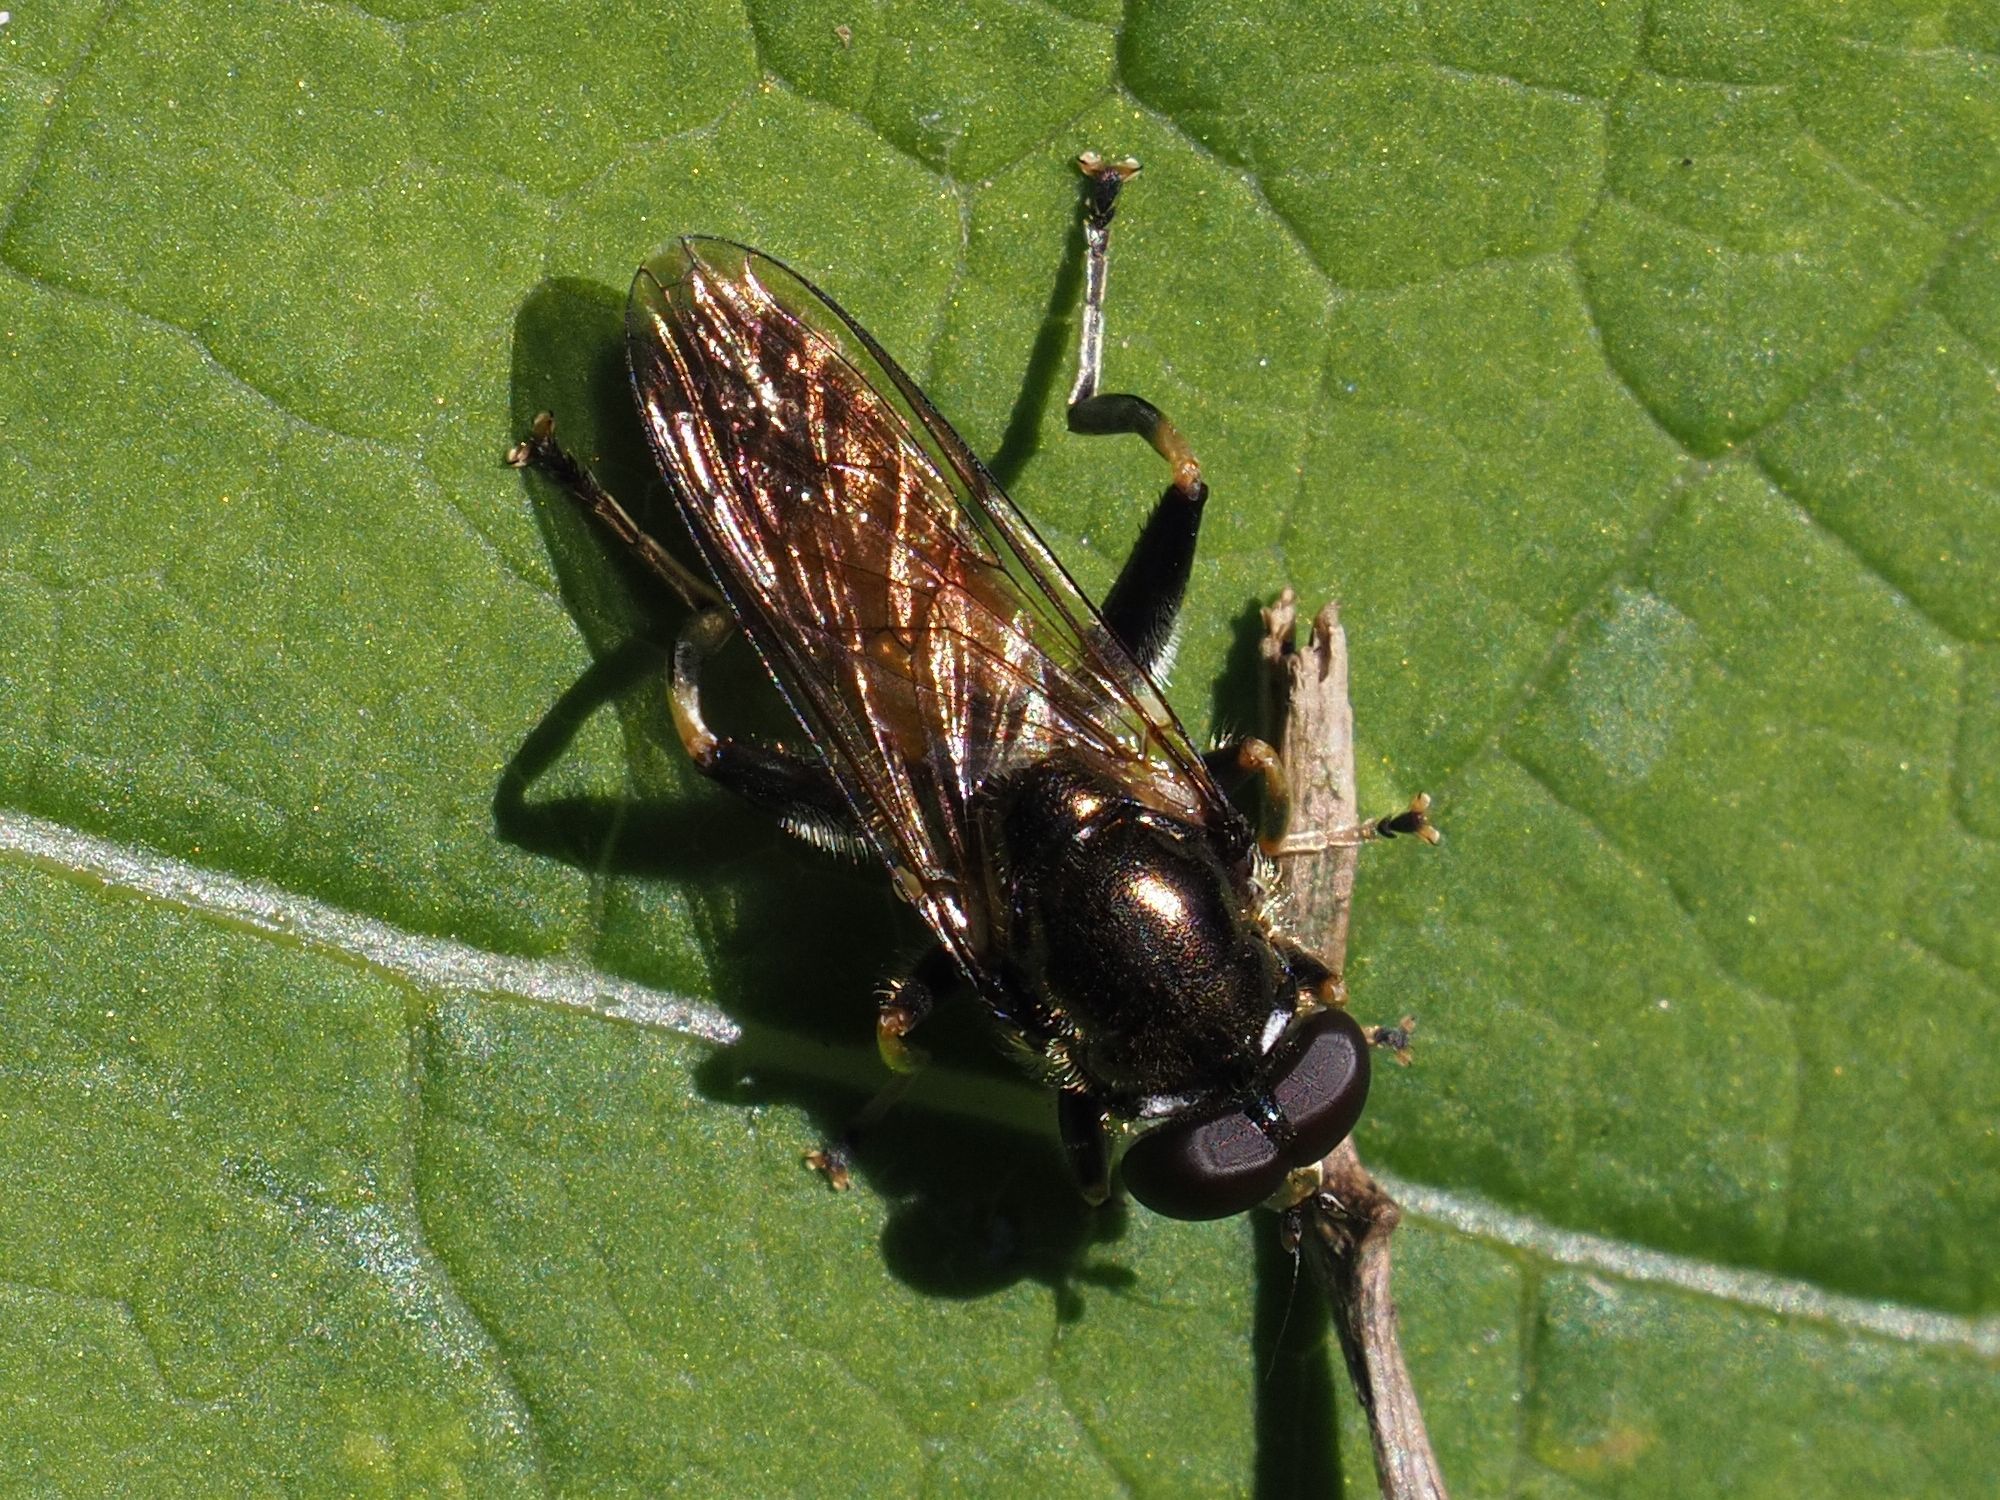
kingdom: Animalia
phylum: Arthropoda
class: Insecta
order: Diptera
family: Syrphidae
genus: Xylota
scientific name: Xylota segnis
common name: Brown-toed forest fly
